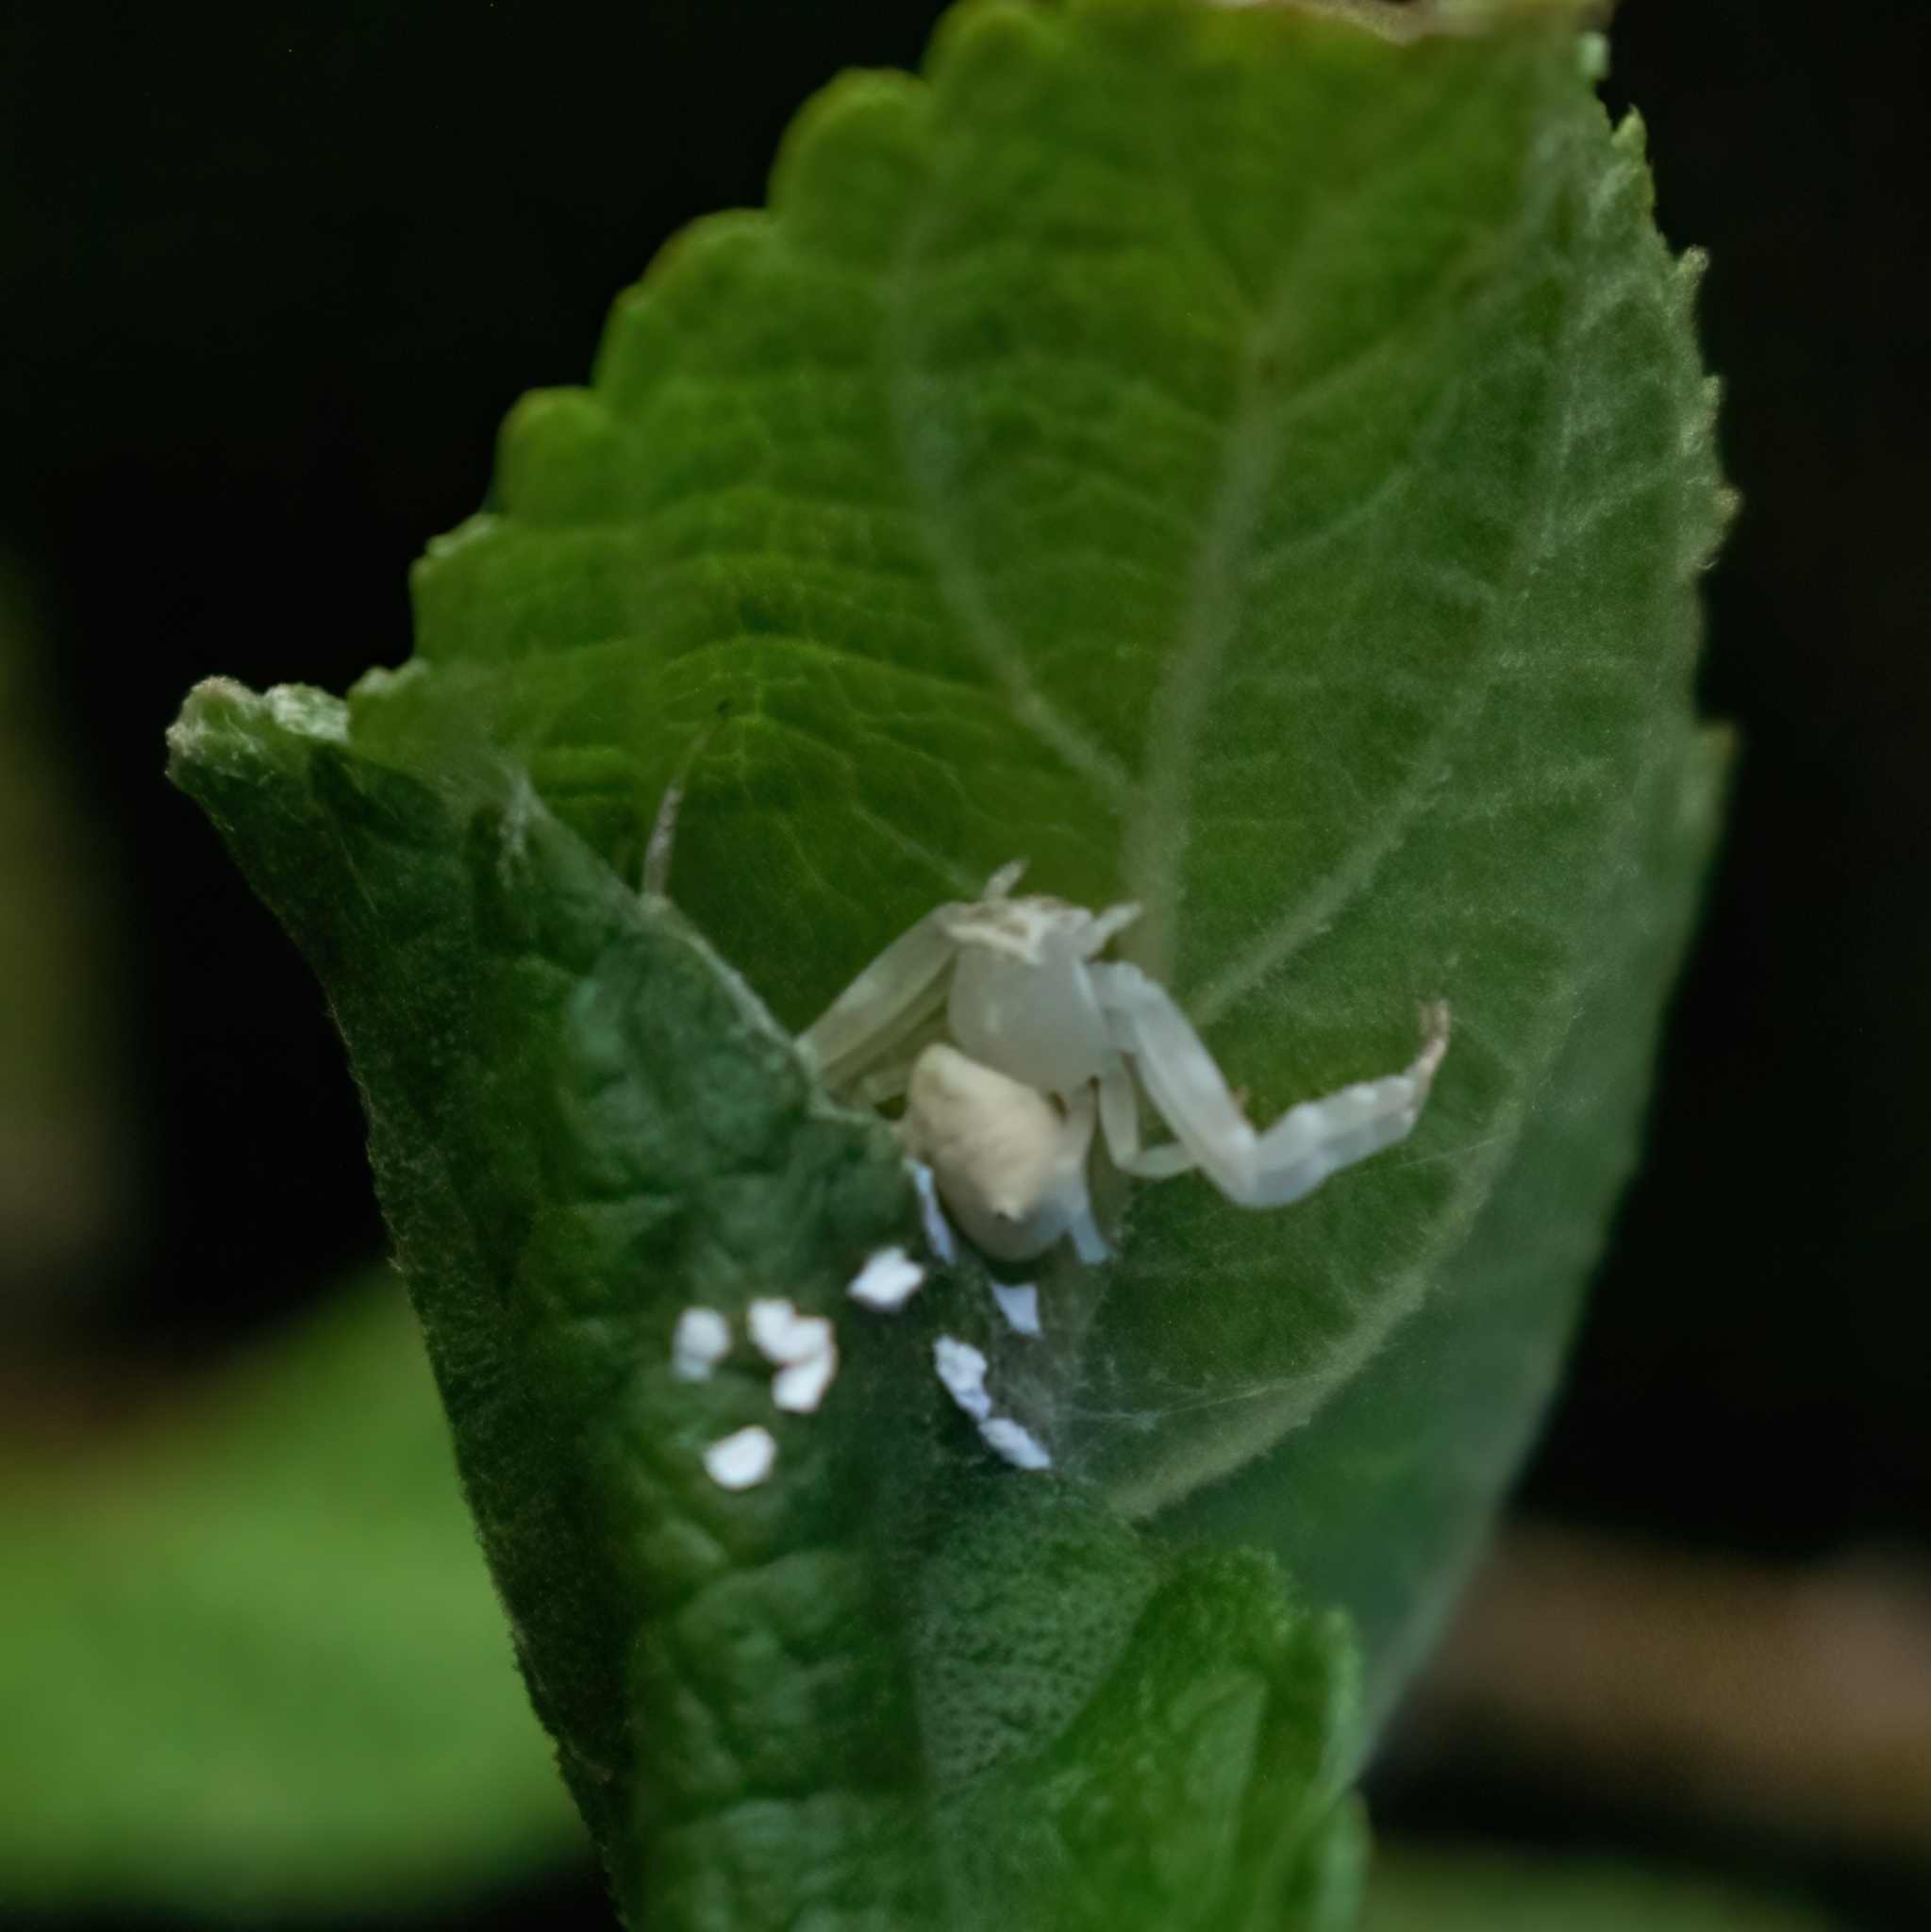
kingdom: Animalia
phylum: Arthropoda
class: Arachnida
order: Araneae
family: Thomisidae
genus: Thomisus
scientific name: Thomisus spectabilis
